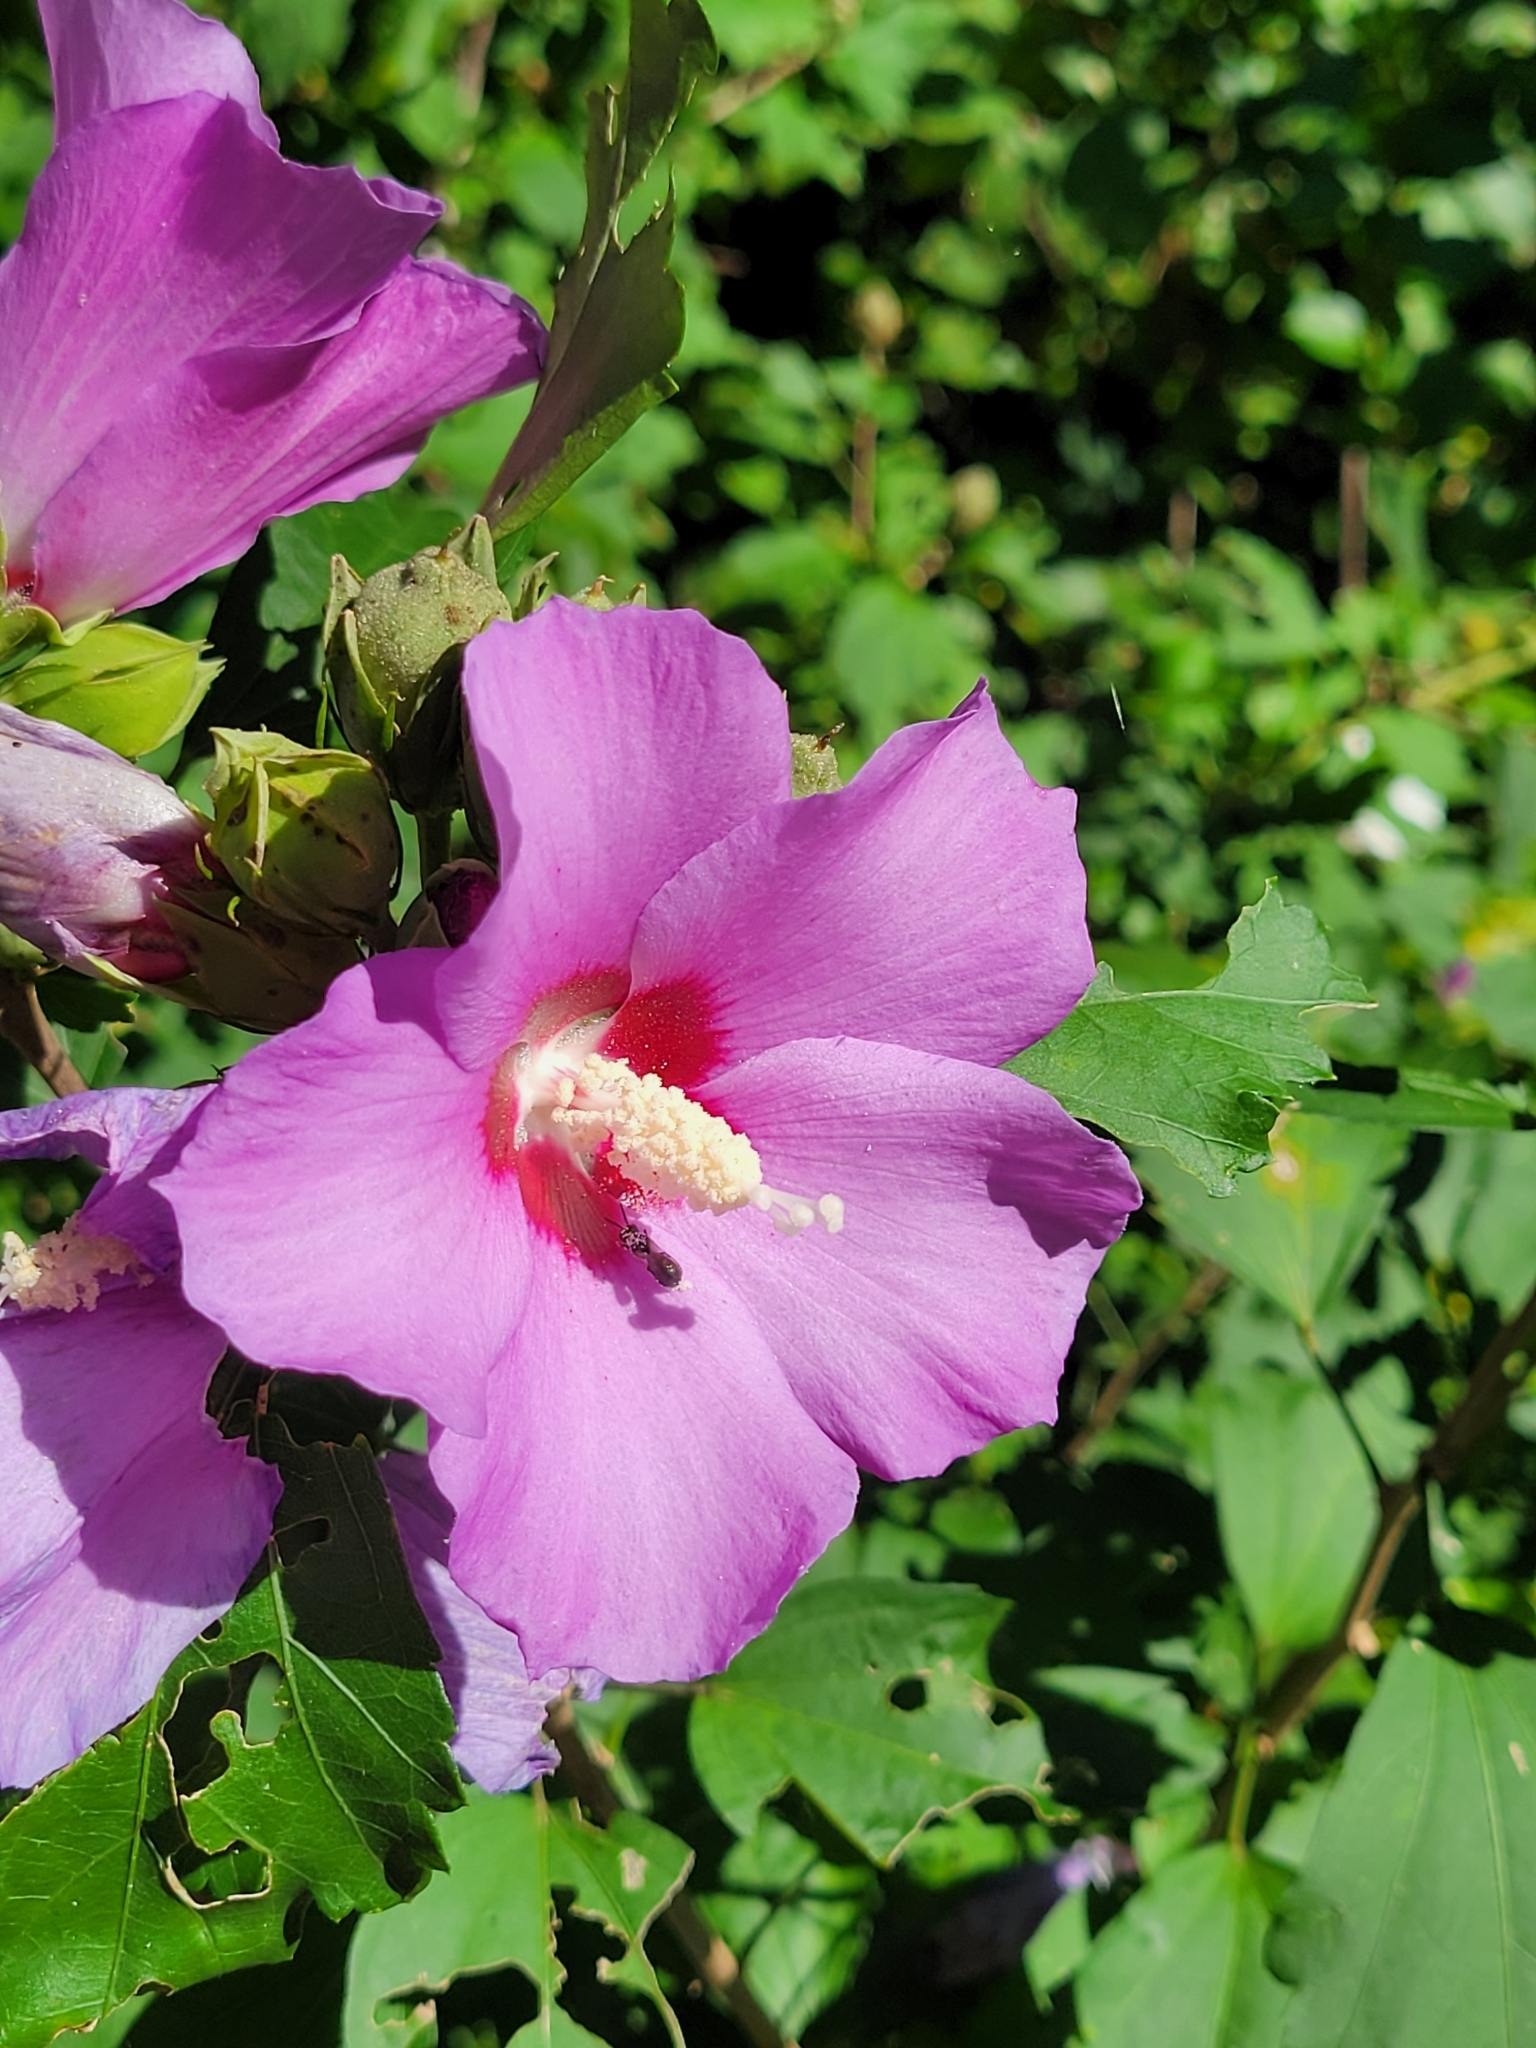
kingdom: Plantae
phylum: Tracheophyta
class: Magnoliopsida
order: Malvales
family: Malvaceae
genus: Hibiscus
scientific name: Hibiscus syriacus
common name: Syrian ketmia
